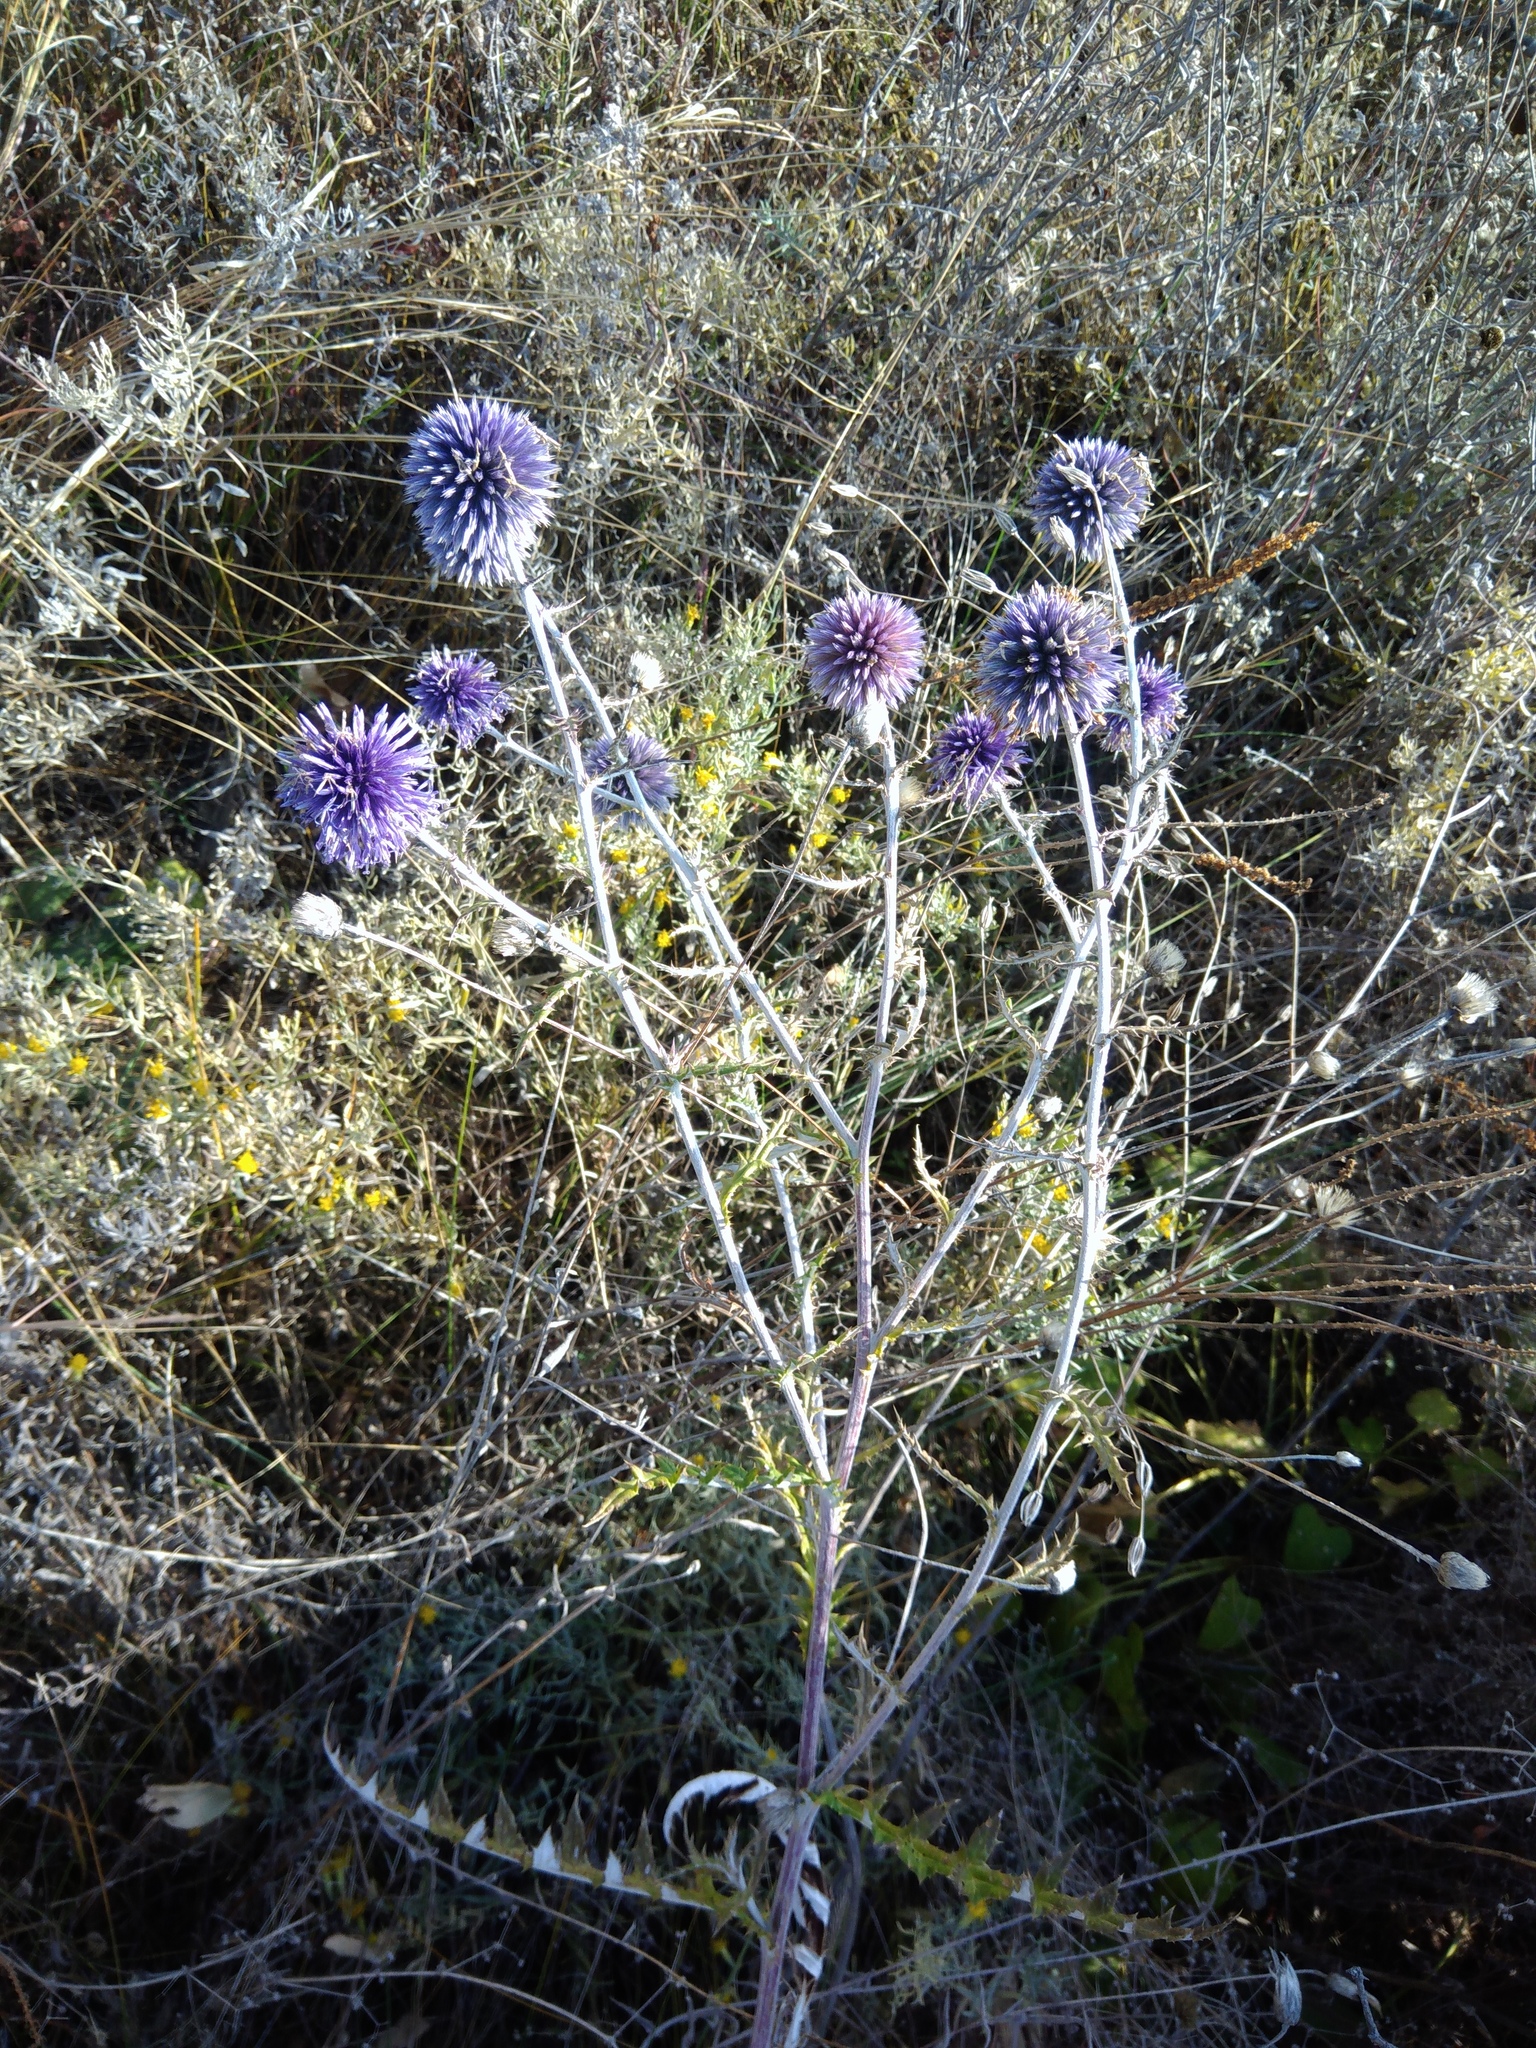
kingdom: Plantae
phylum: Tracheophyta
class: Magnoliopsida
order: Asterales
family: Asteraceae
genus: Echinops
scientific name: Echinops ritro
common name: Globe thistle
